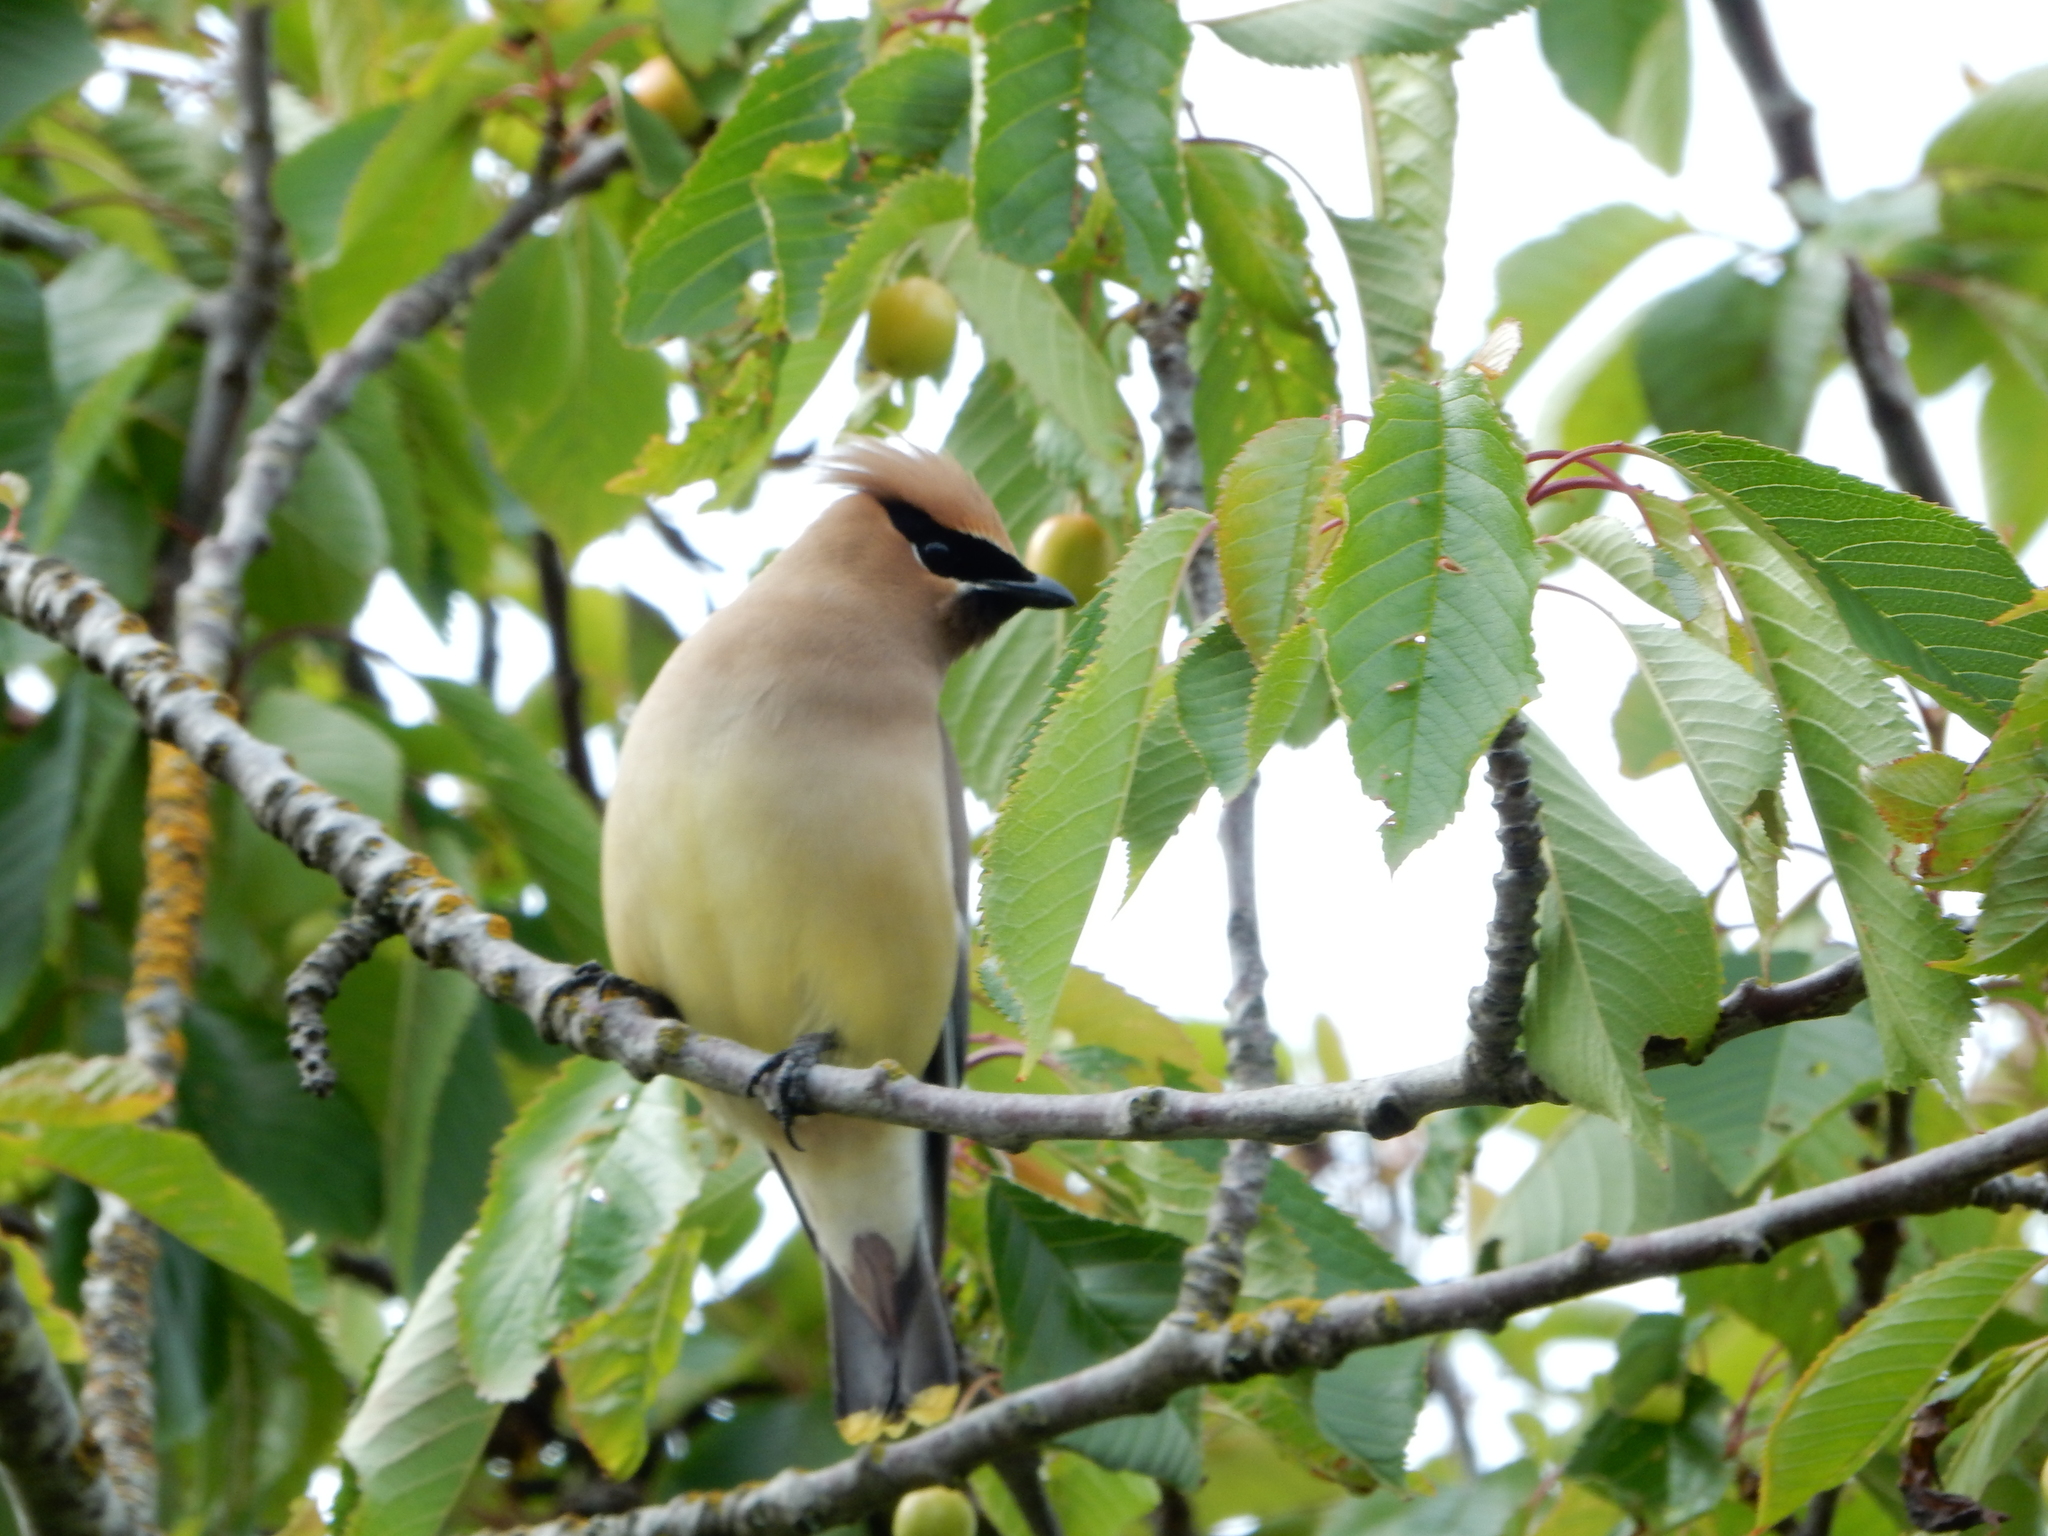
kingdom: Animalia
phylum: Chordata
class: Aves
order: Passeriformes
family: Bombycillidae
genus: Bombycilla
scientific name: Bombycilla cedrorum
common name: Cedar waxwing
